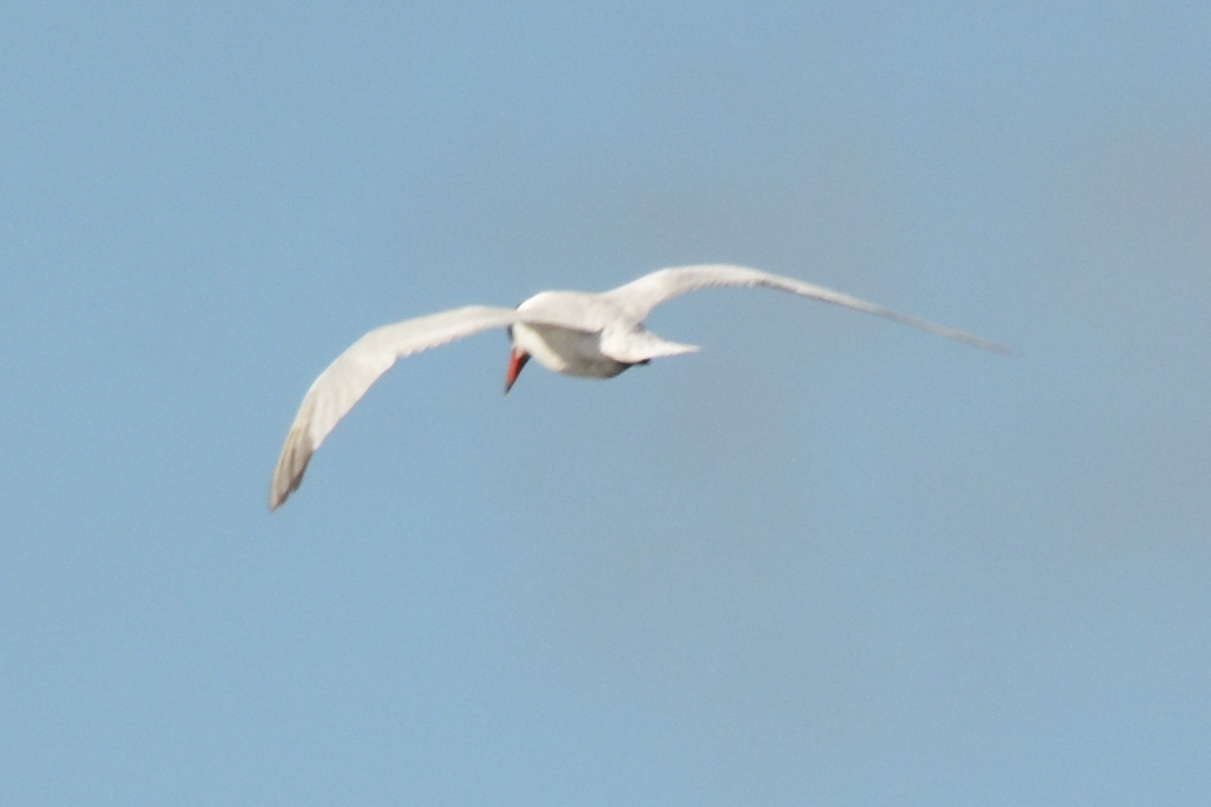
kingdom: Animalia
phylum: Chordata
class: Aves
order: Charadriiformes
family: Laridae
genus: Hydroprogne
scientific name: Hydroprogne caspia
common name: Caspian tern
